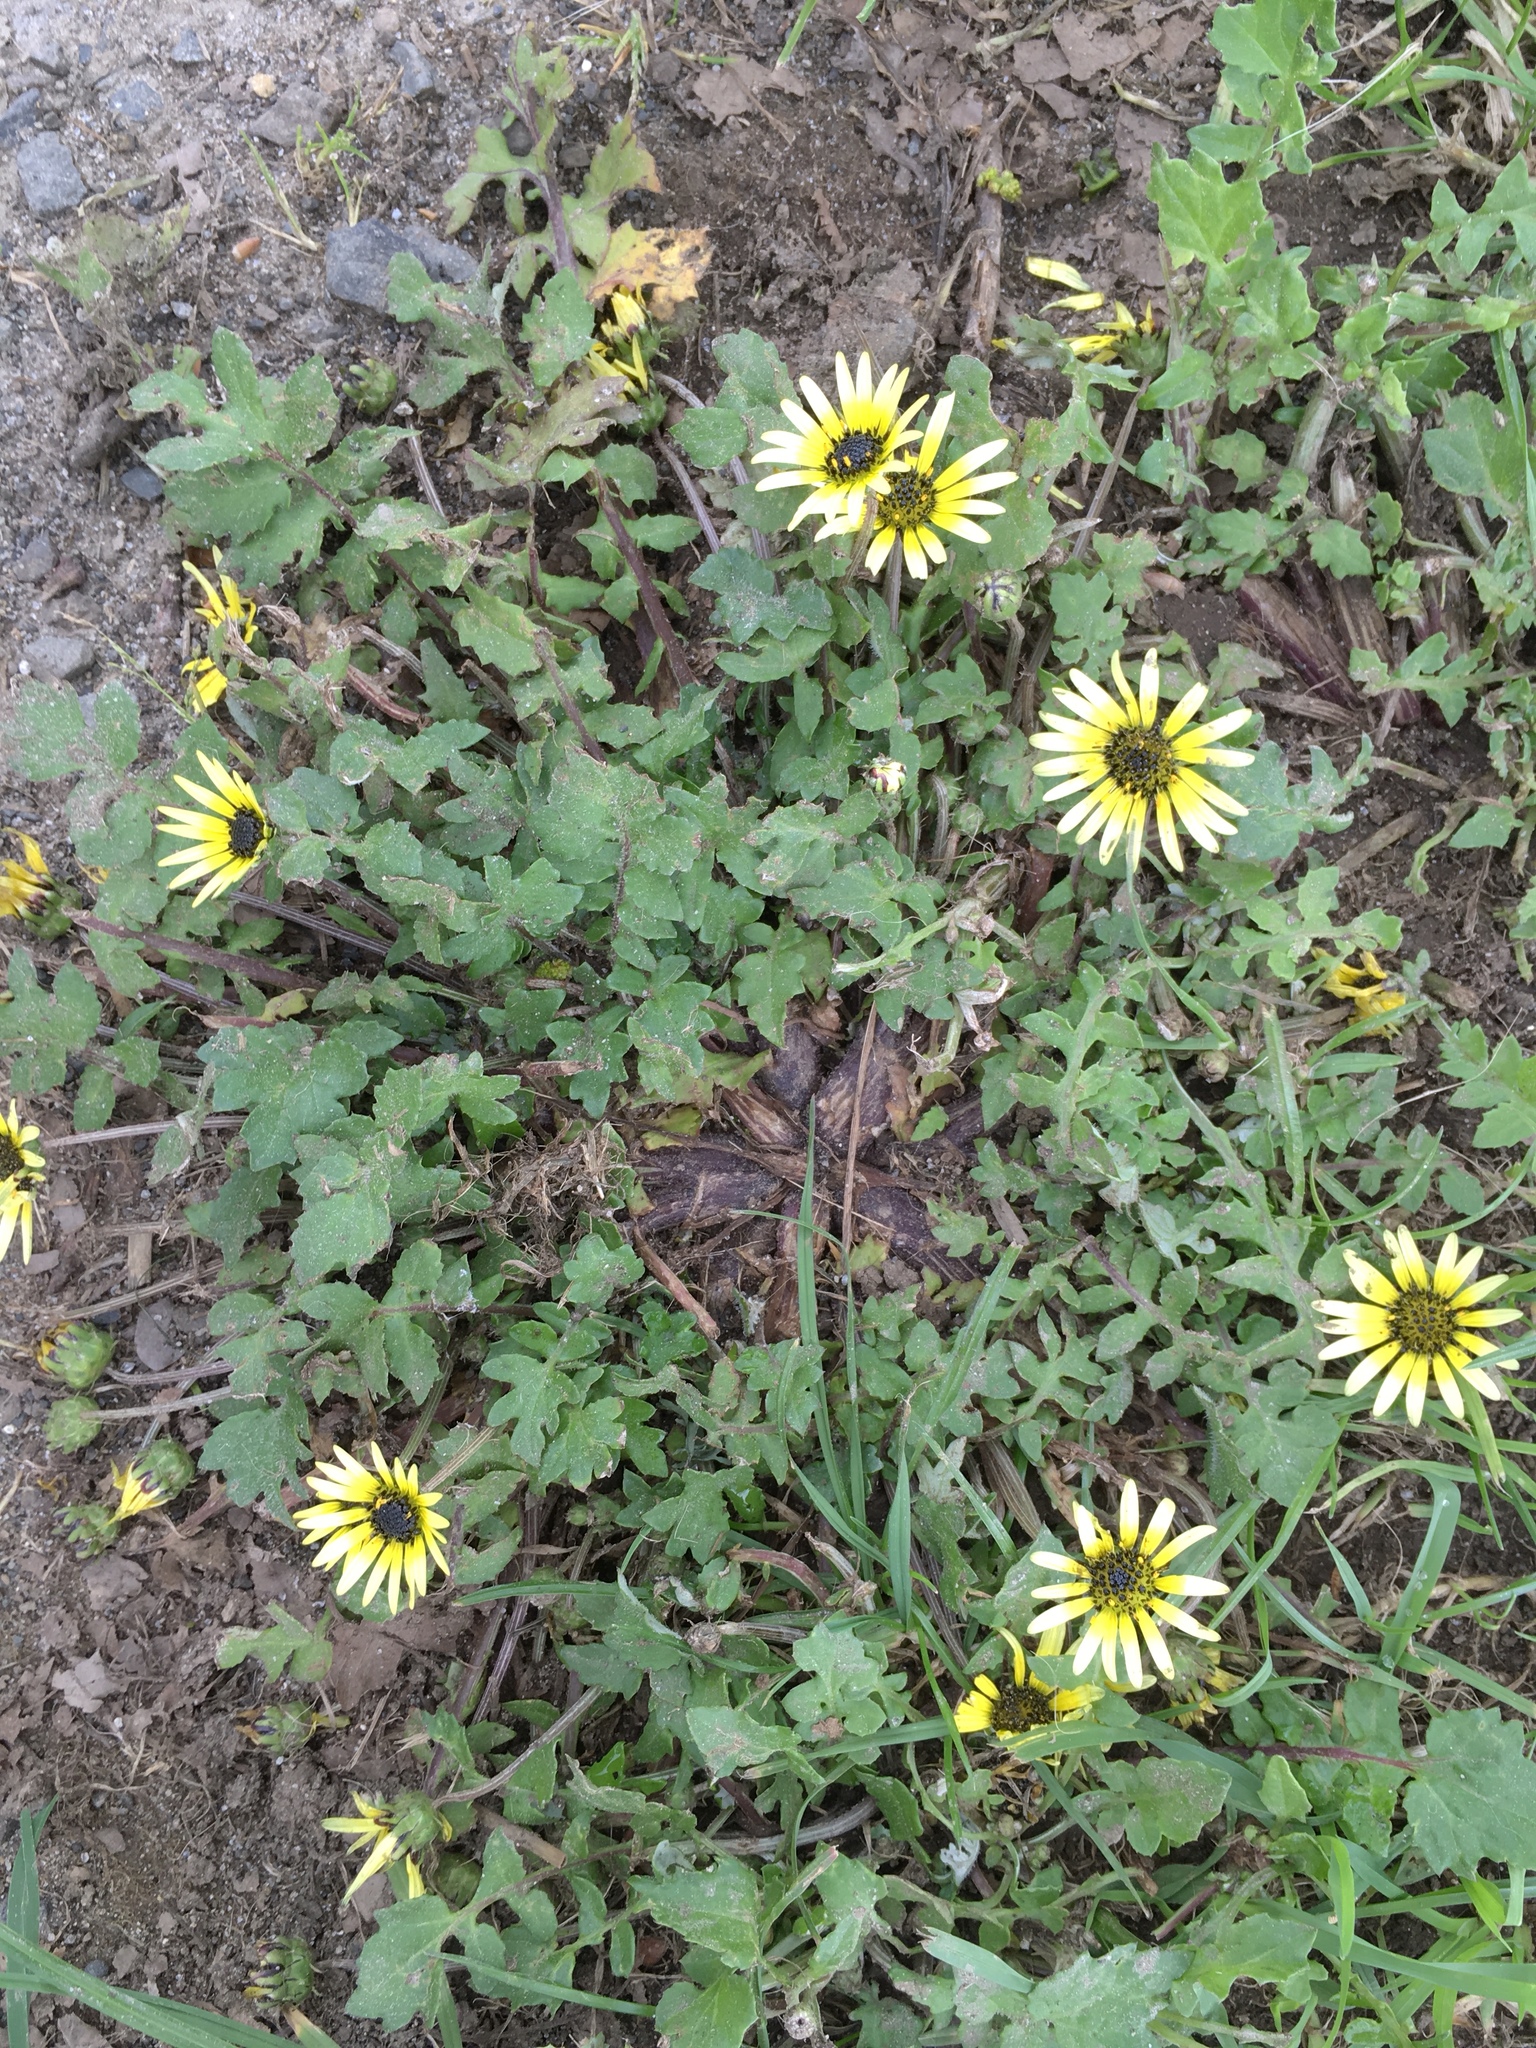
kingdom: Plantae
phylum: Tracheophyta
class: Magnoliopsida
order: Asterales
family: Asteraceae
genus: Arctotheca
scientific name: Arctotheca calendula
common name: Capeweed
